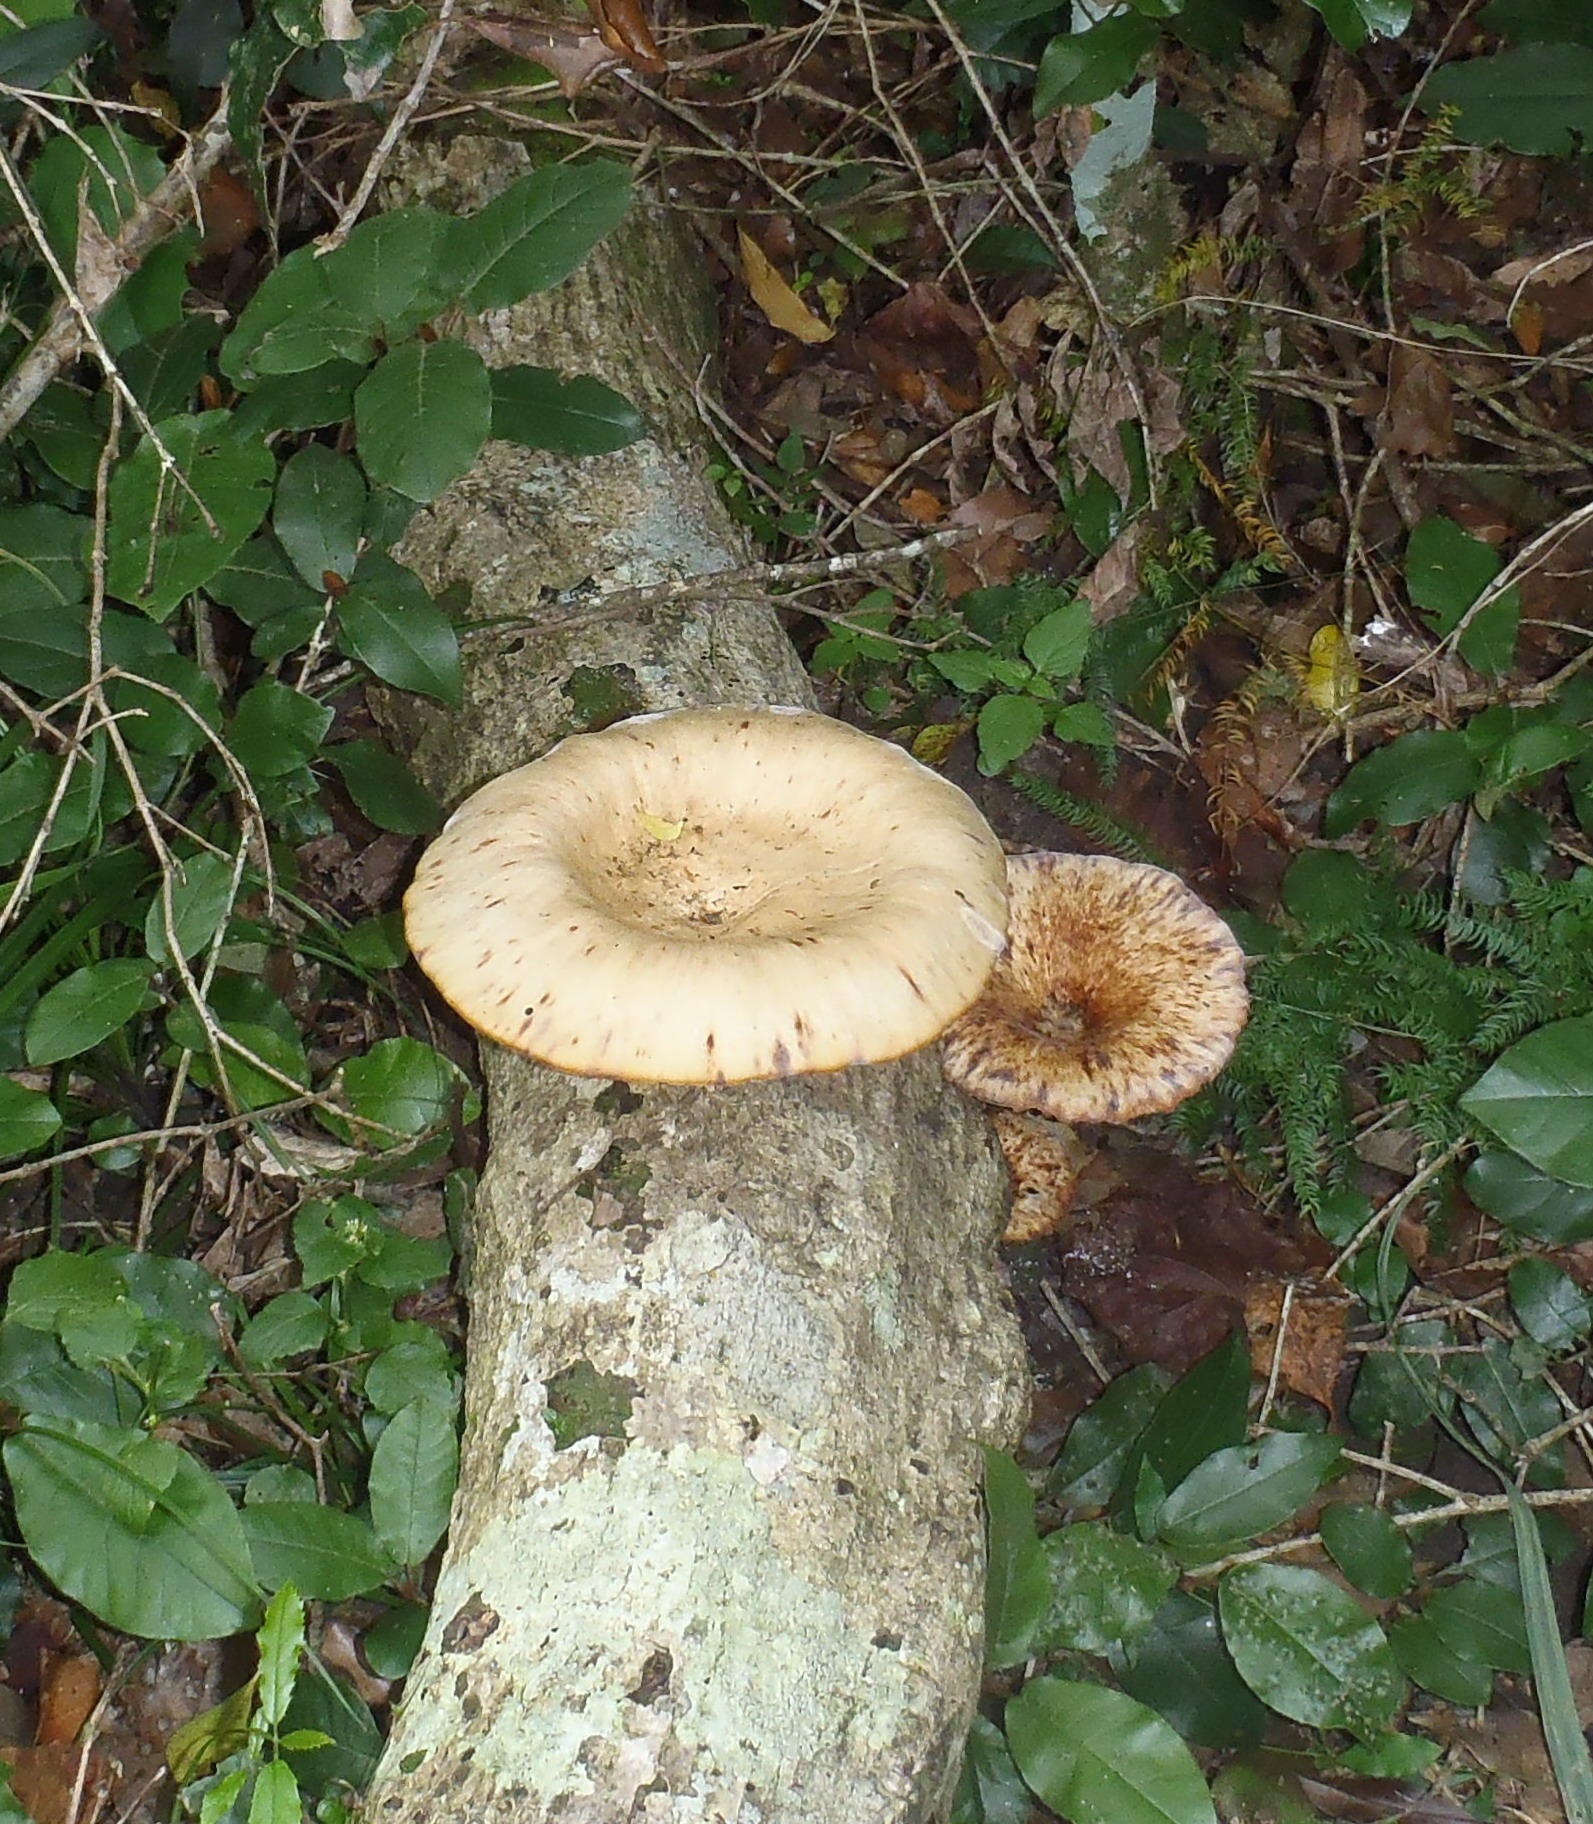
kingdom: Fungi
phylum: Basidiomycota
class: Agaricomycetes
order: Polyporales
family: Polyporaceae
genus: Lentinus
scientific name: Lentinus sajor-caju
